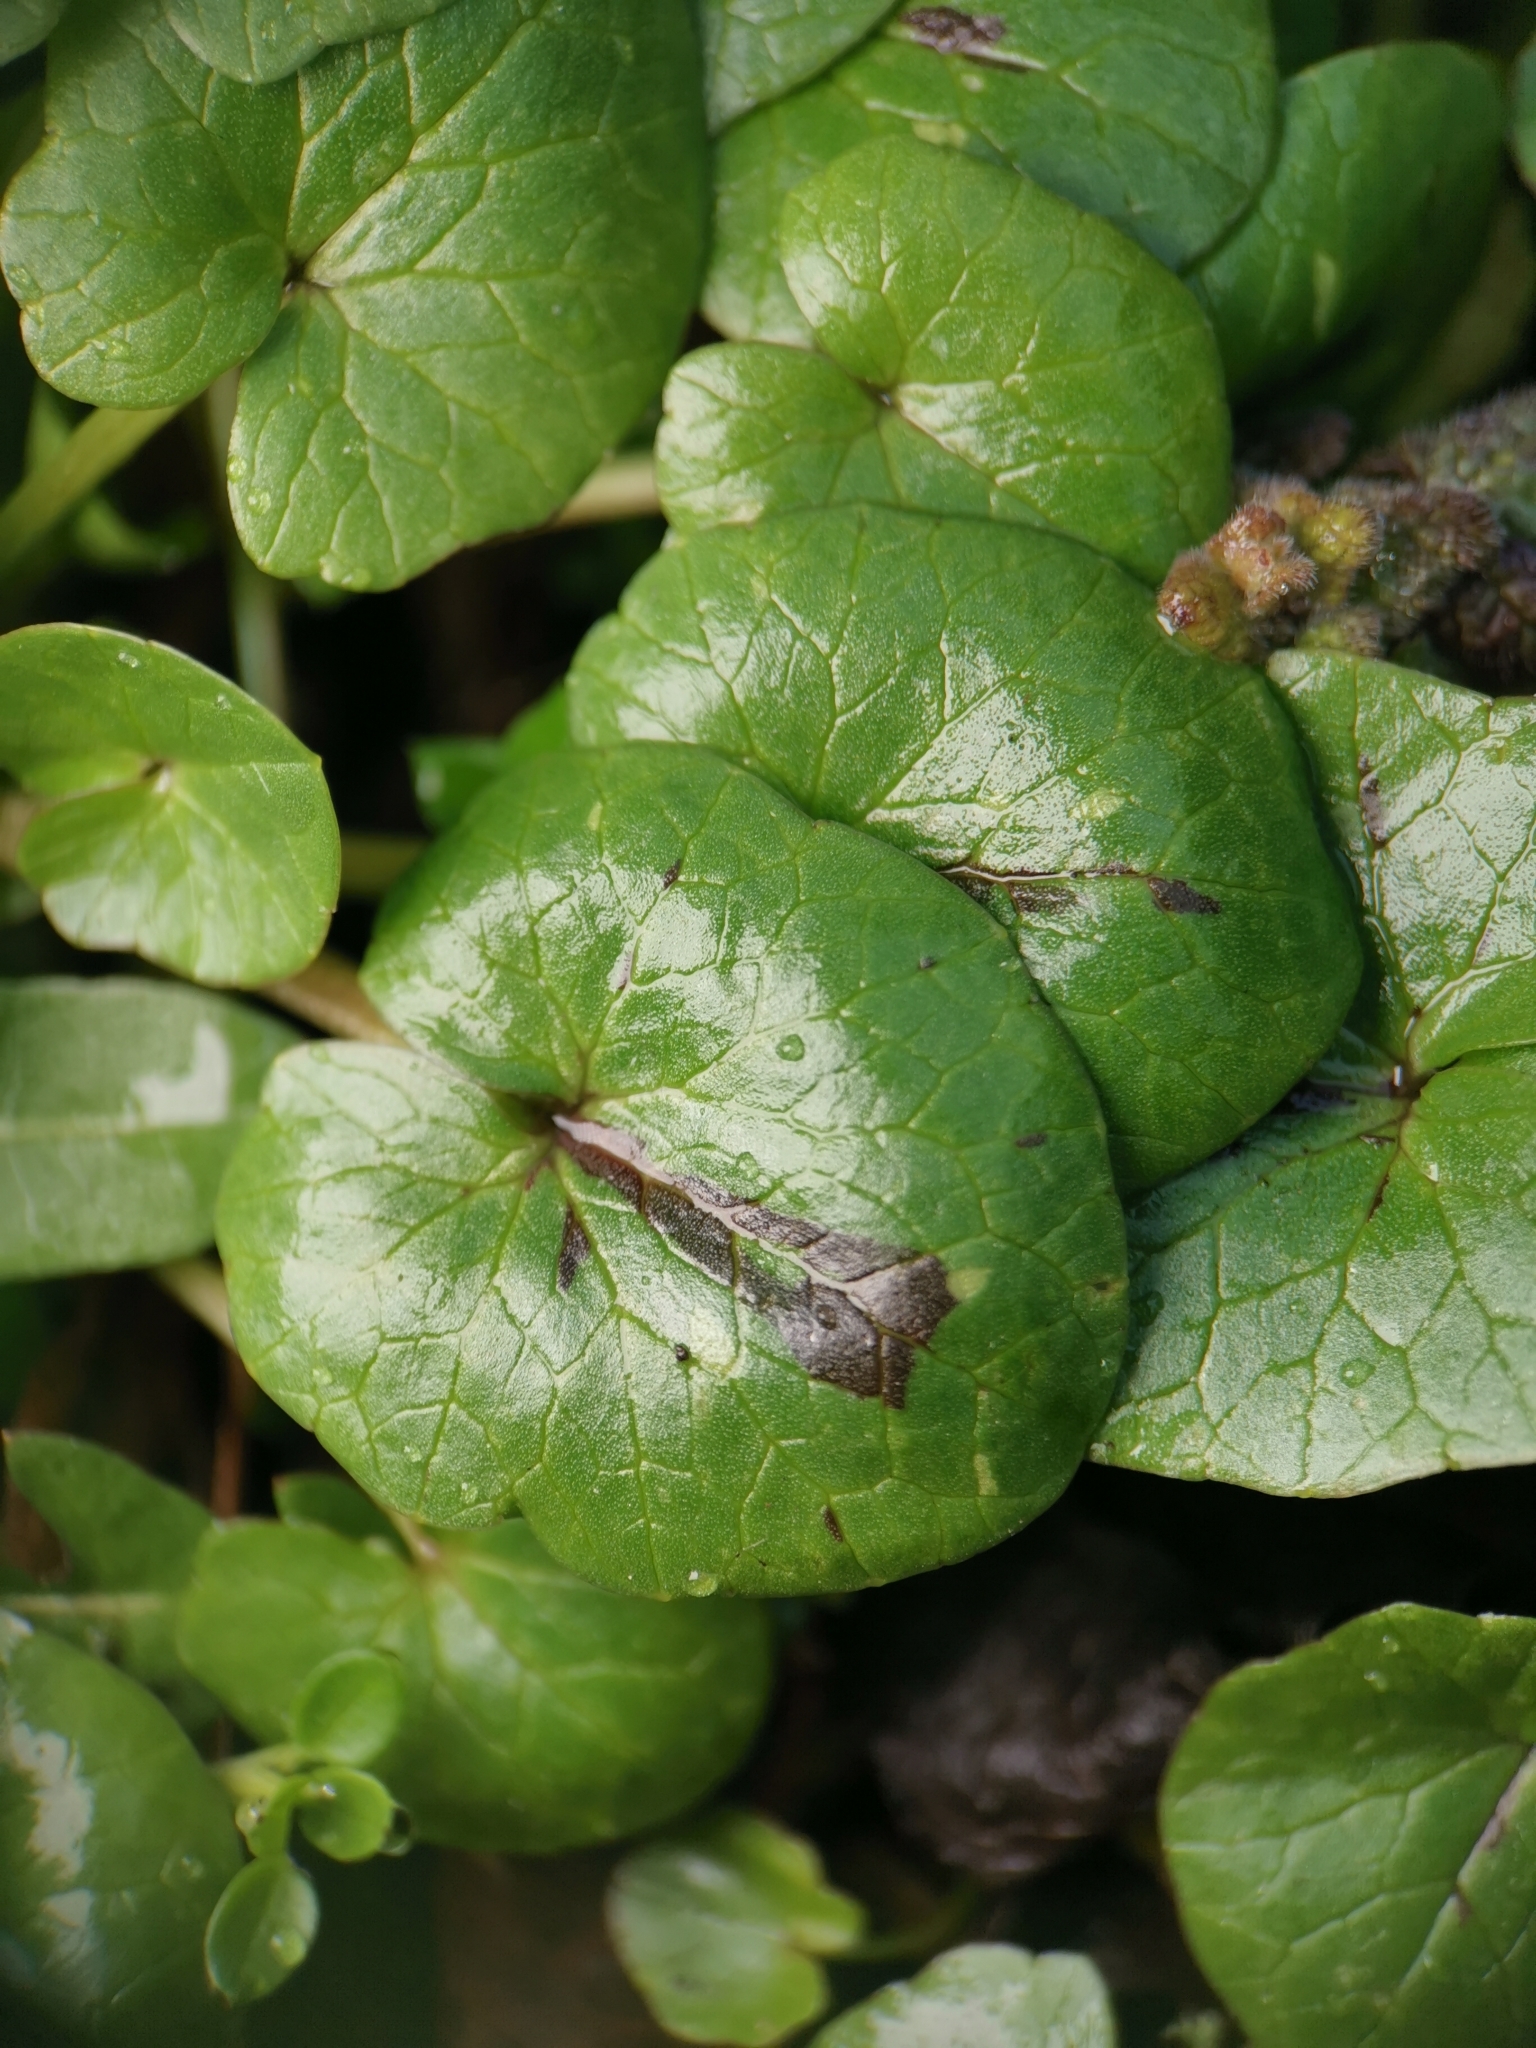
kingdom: Plantae
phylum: Tracheophyta
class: Magnoliopsida
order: Ranunculales
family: Ranunculaceae
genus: Ficaria
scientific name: Ficaria verna
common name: Lesser celandine
